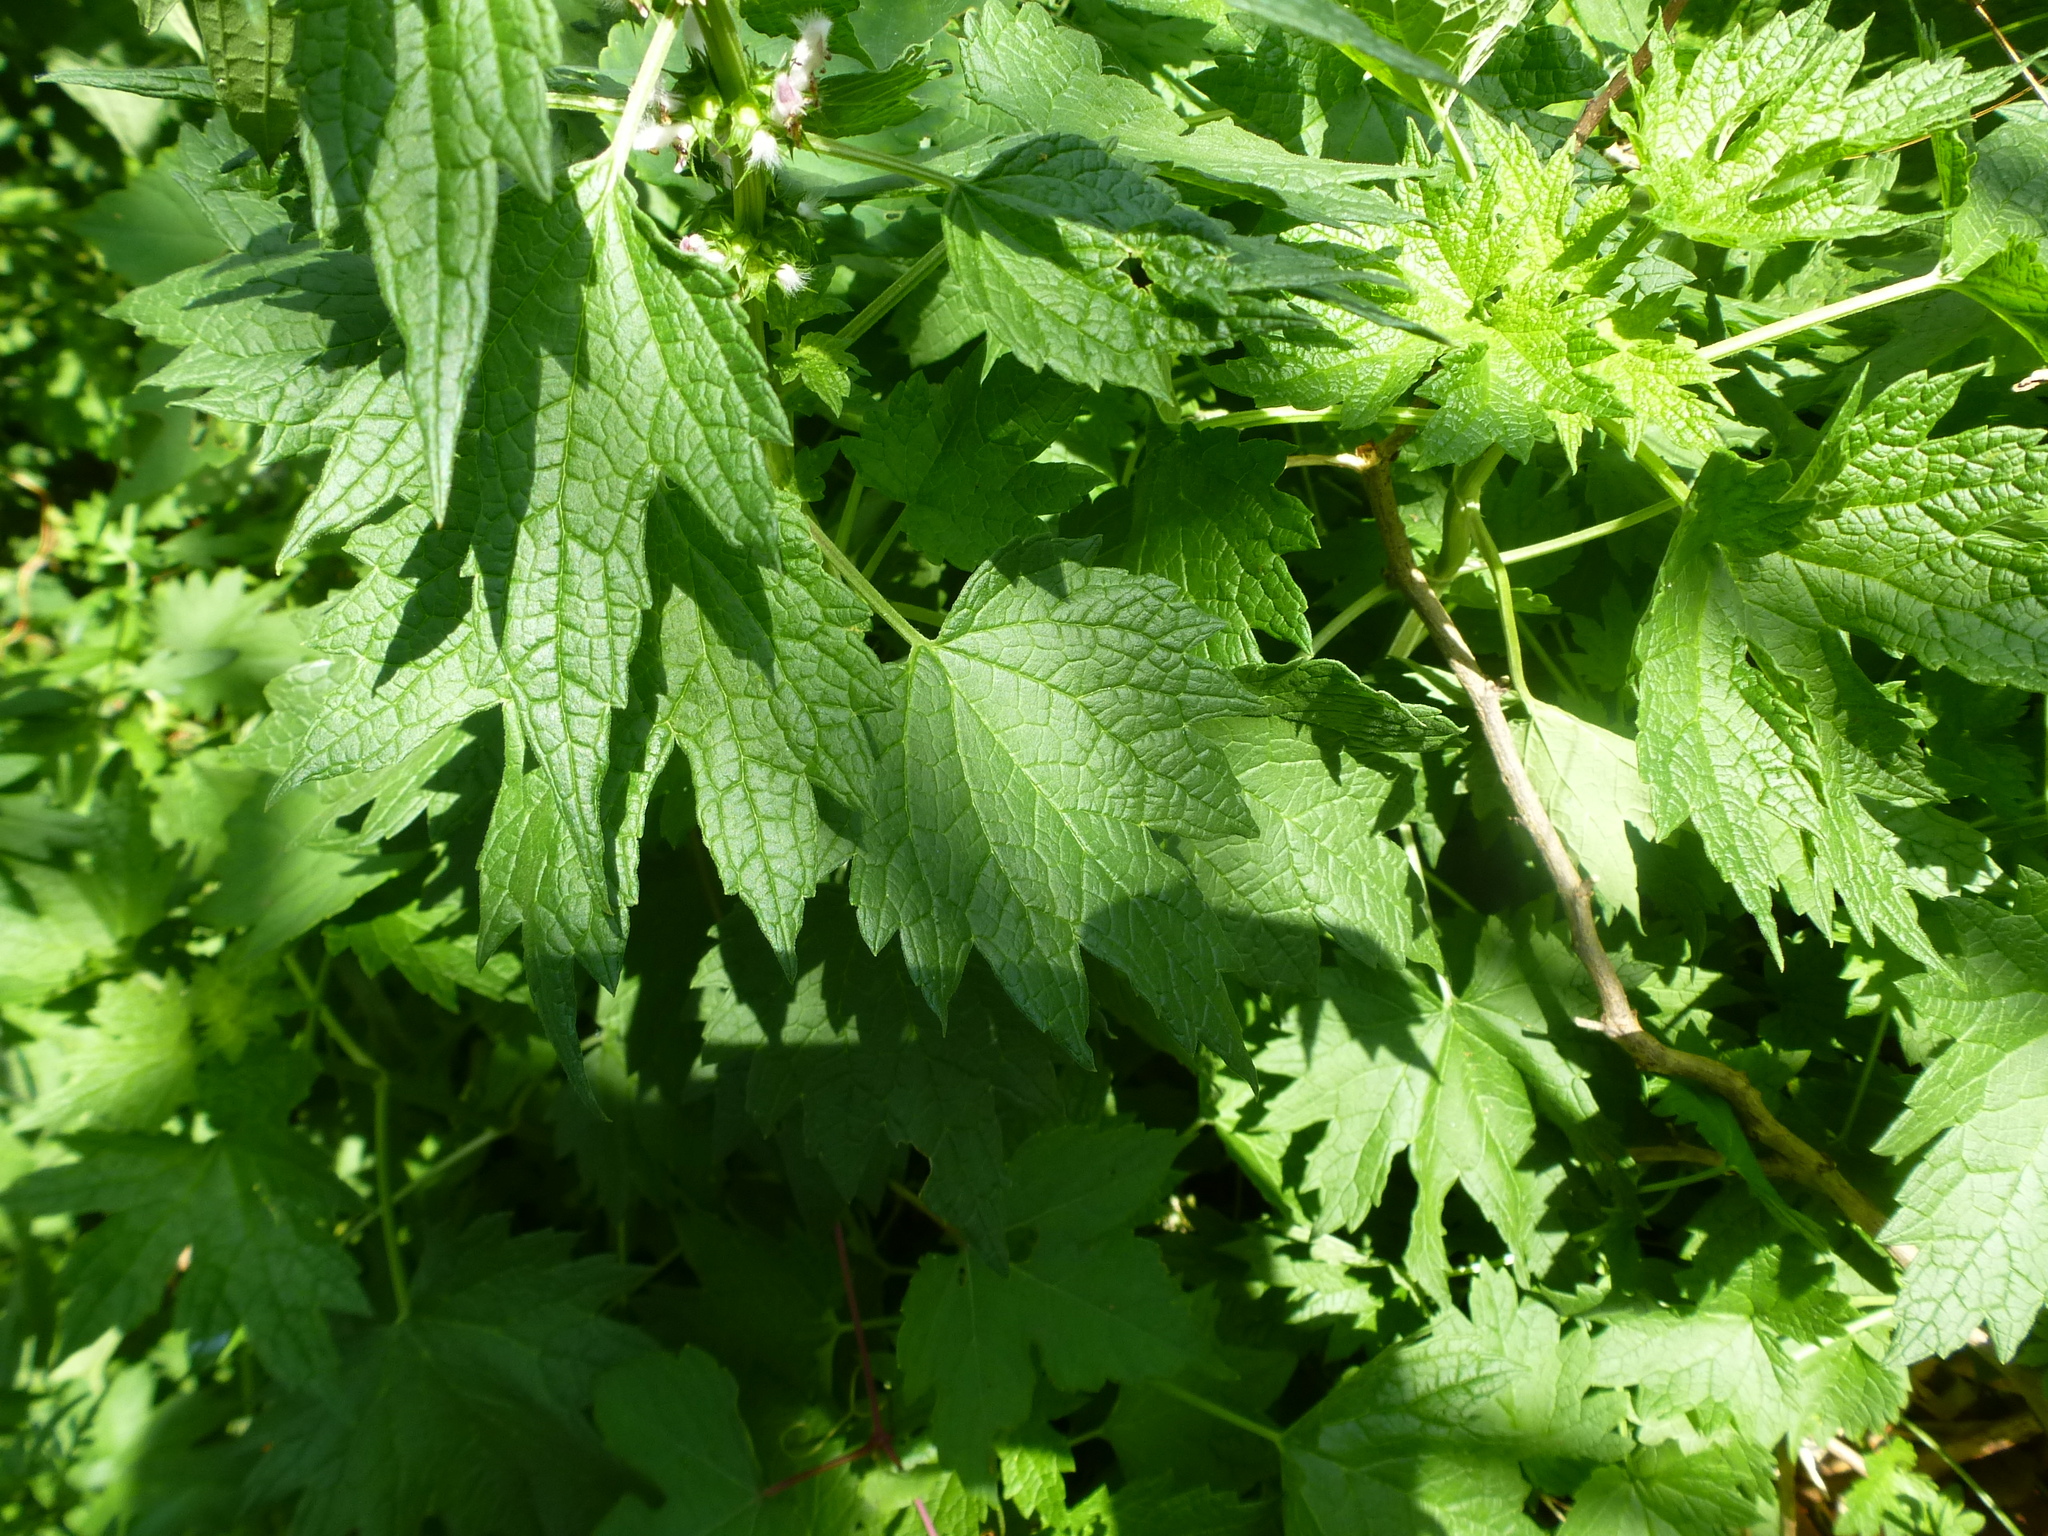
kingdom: Plantae
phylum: Tracheophyta
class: Magnoliopsida
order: Lamiales
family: Lamiaceae
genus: Leonurus
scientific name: Leonurus cardiaca
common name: Motherwort
